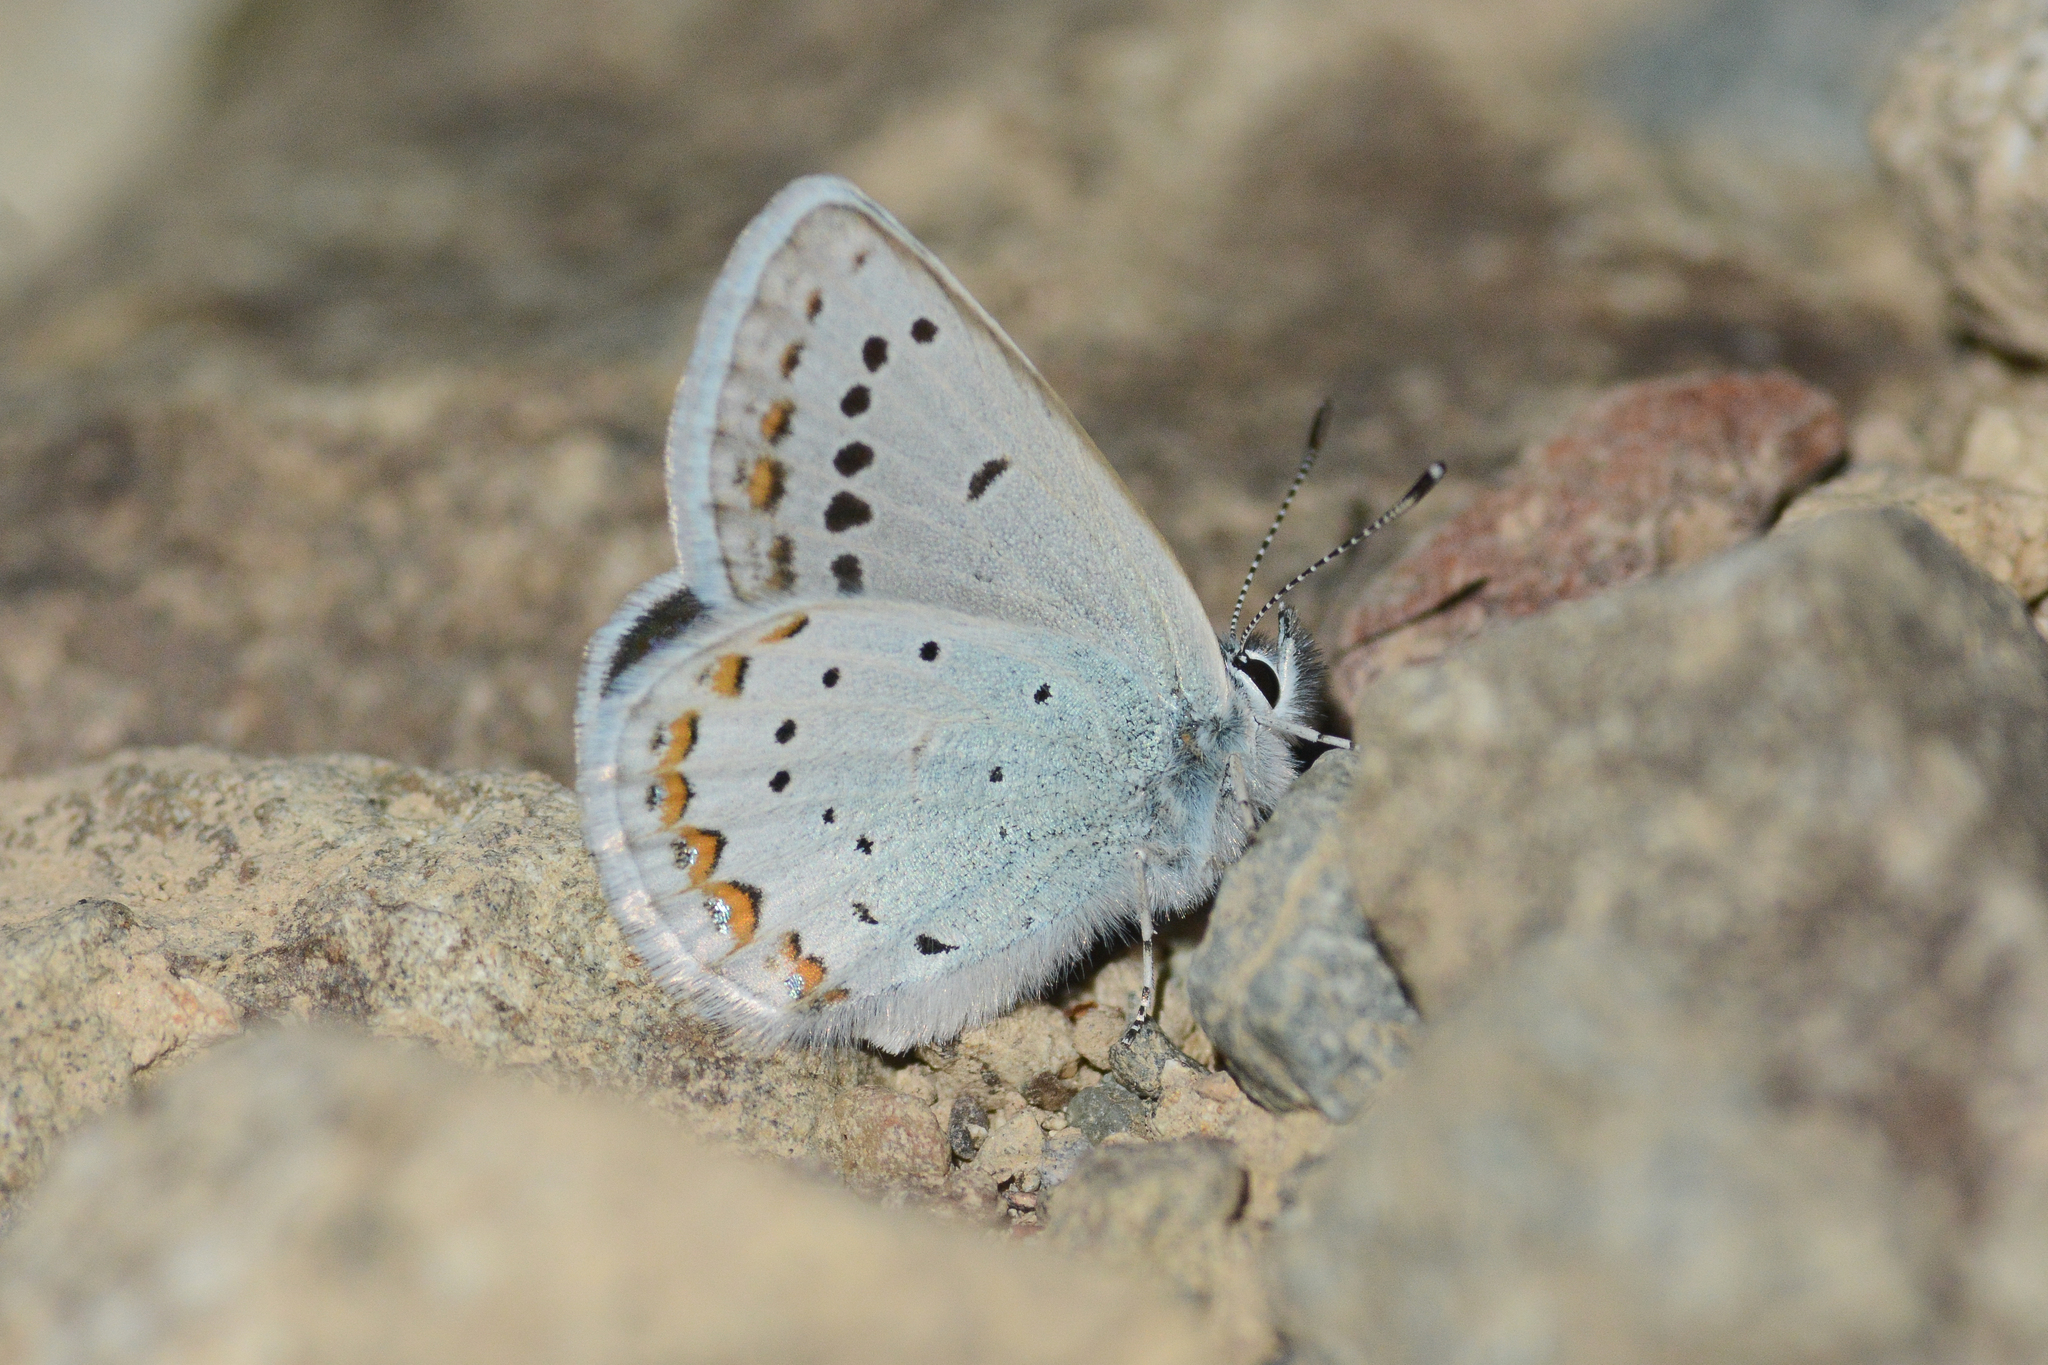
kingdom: Animalia
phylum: Arthropoda
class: Insecta
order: Lepidoptera
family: Lycaenidae
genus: Lycaeides
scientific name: Lycaeides anna
